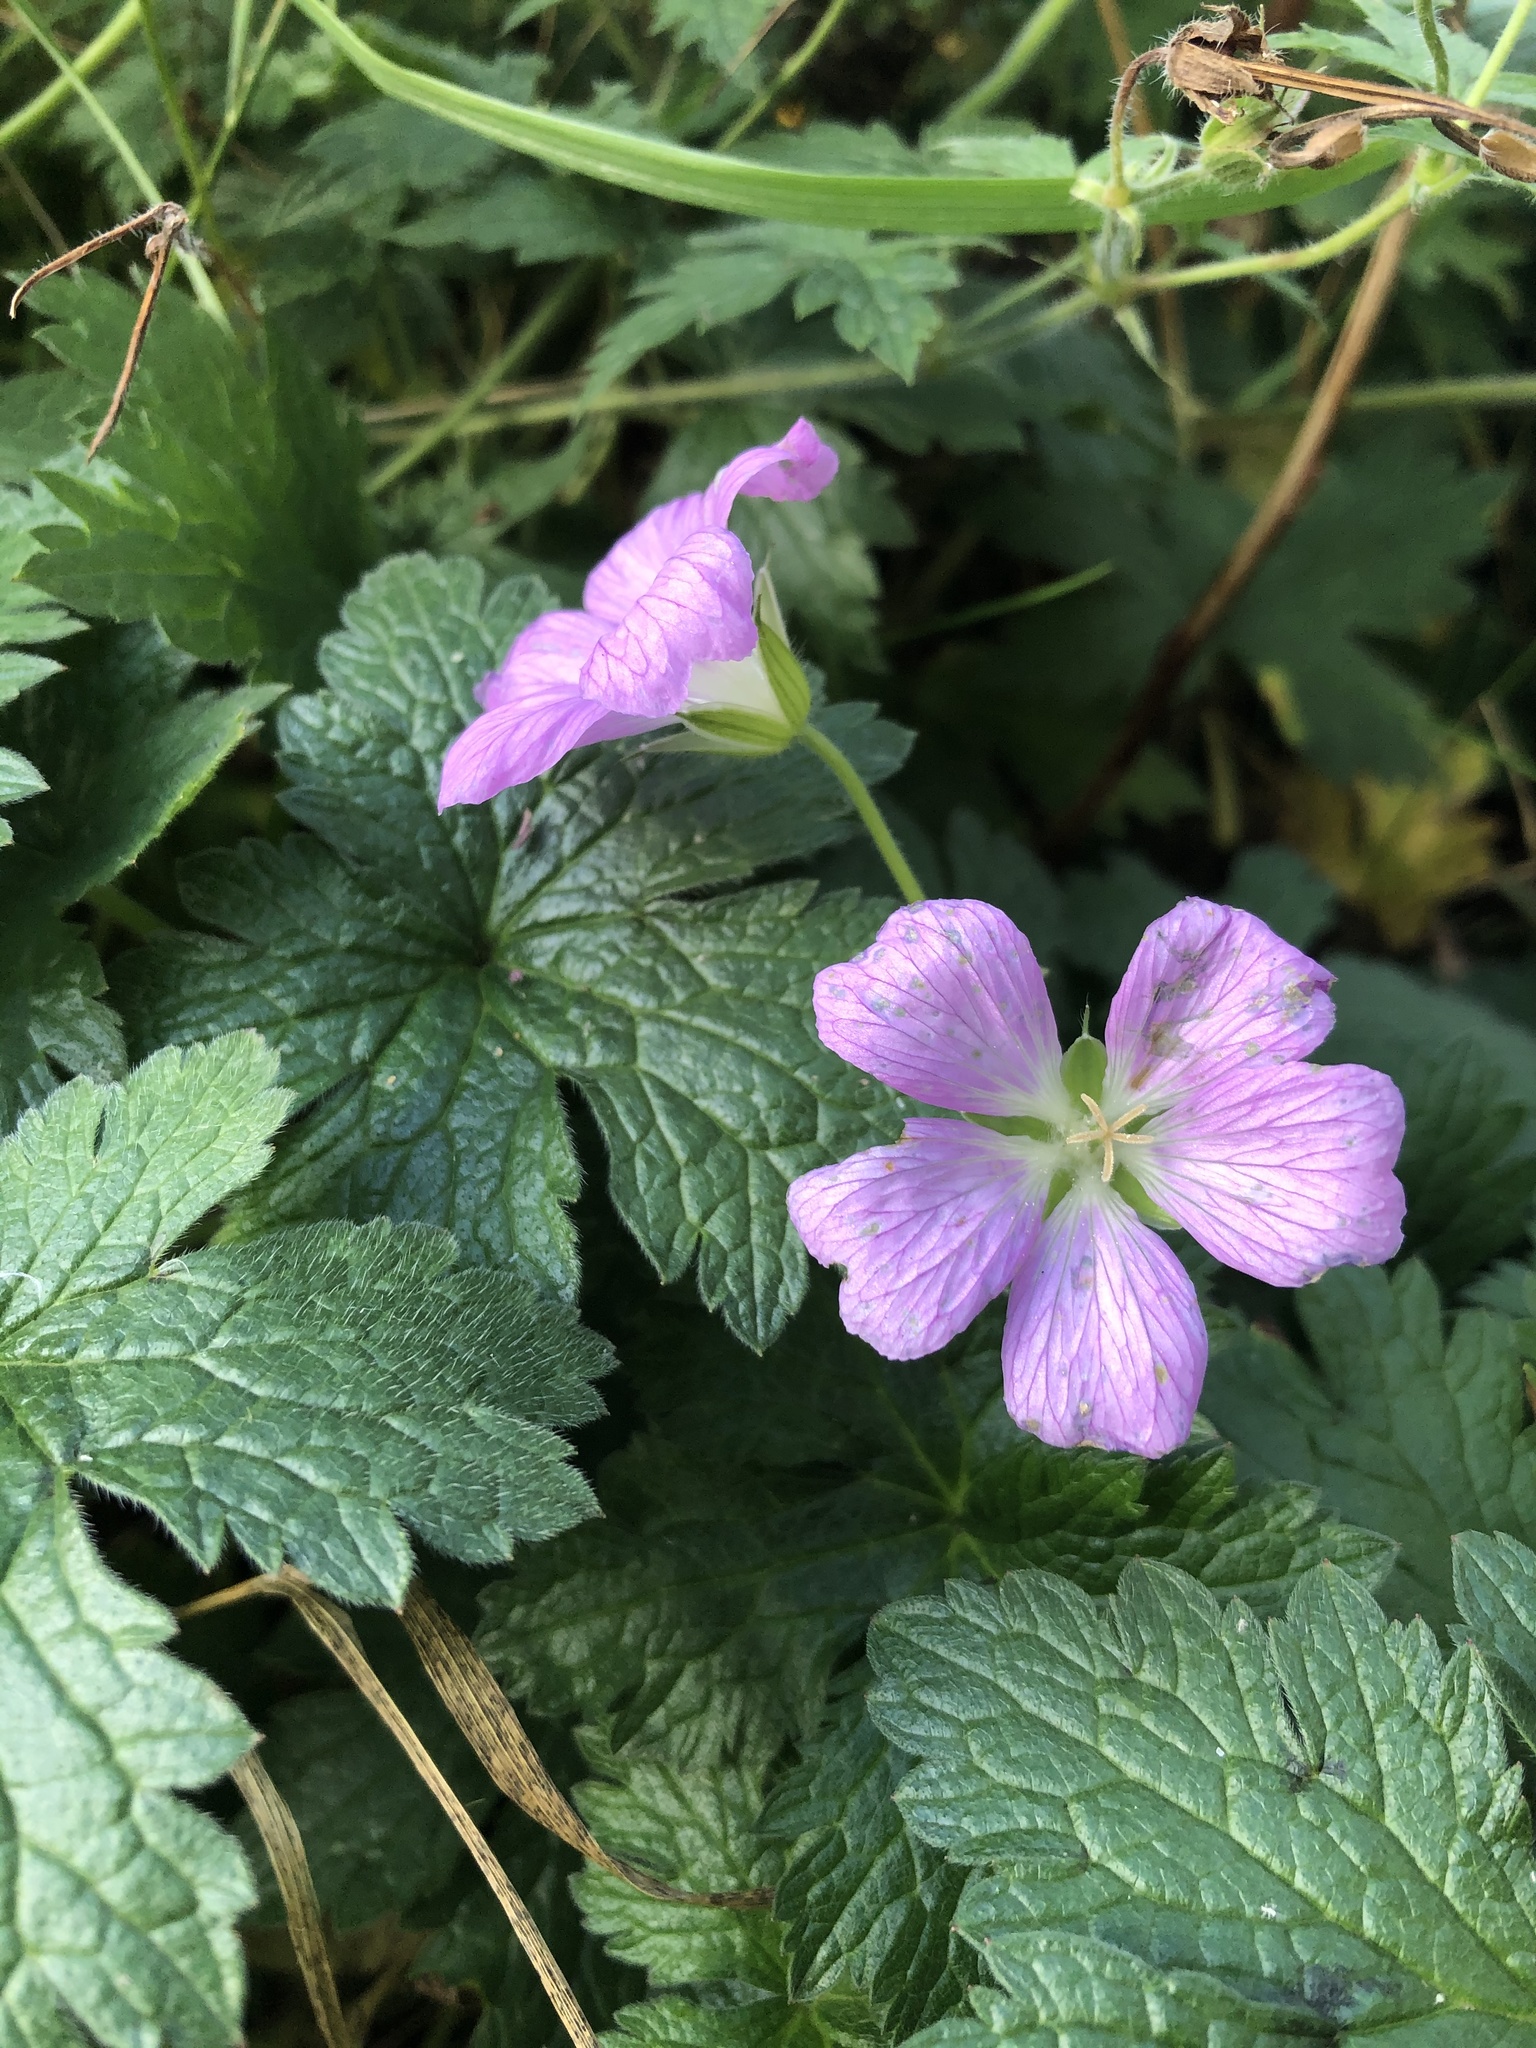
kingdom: Plantae
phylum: Tracheophyta
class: Magnoliopsida
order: Geraniales
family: Geraniaceae
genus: Geranium
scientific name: Geranium oxonianum
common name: Druce's crane's-bill
